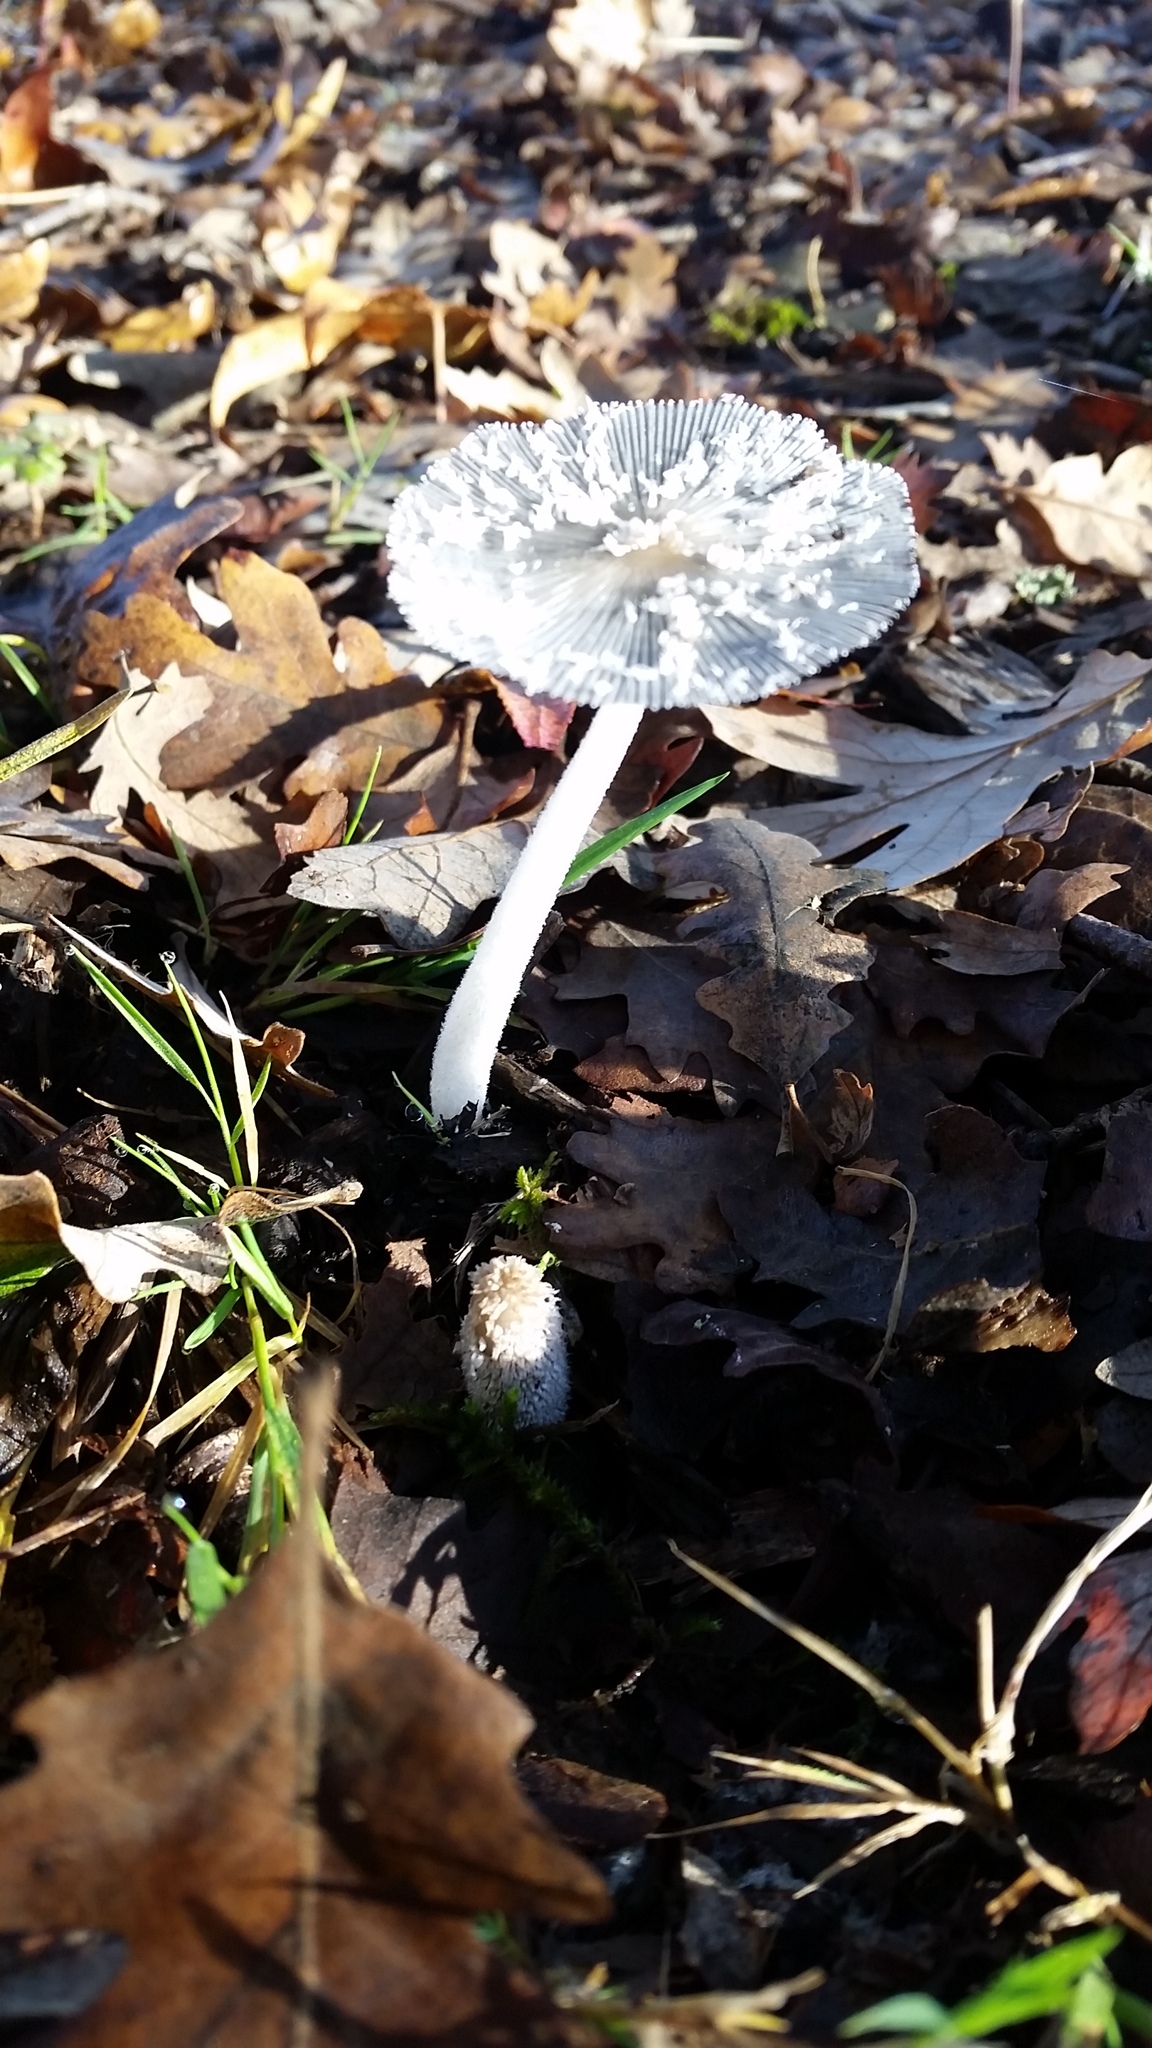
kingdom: Fungi
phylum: Basidiomycota
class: Agaricomycetes
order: Agaricales
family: Psathyrellaceae
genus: Coprinopsis
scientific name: Coprinopsis lagopus
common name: Hare'sfoot inkcap
